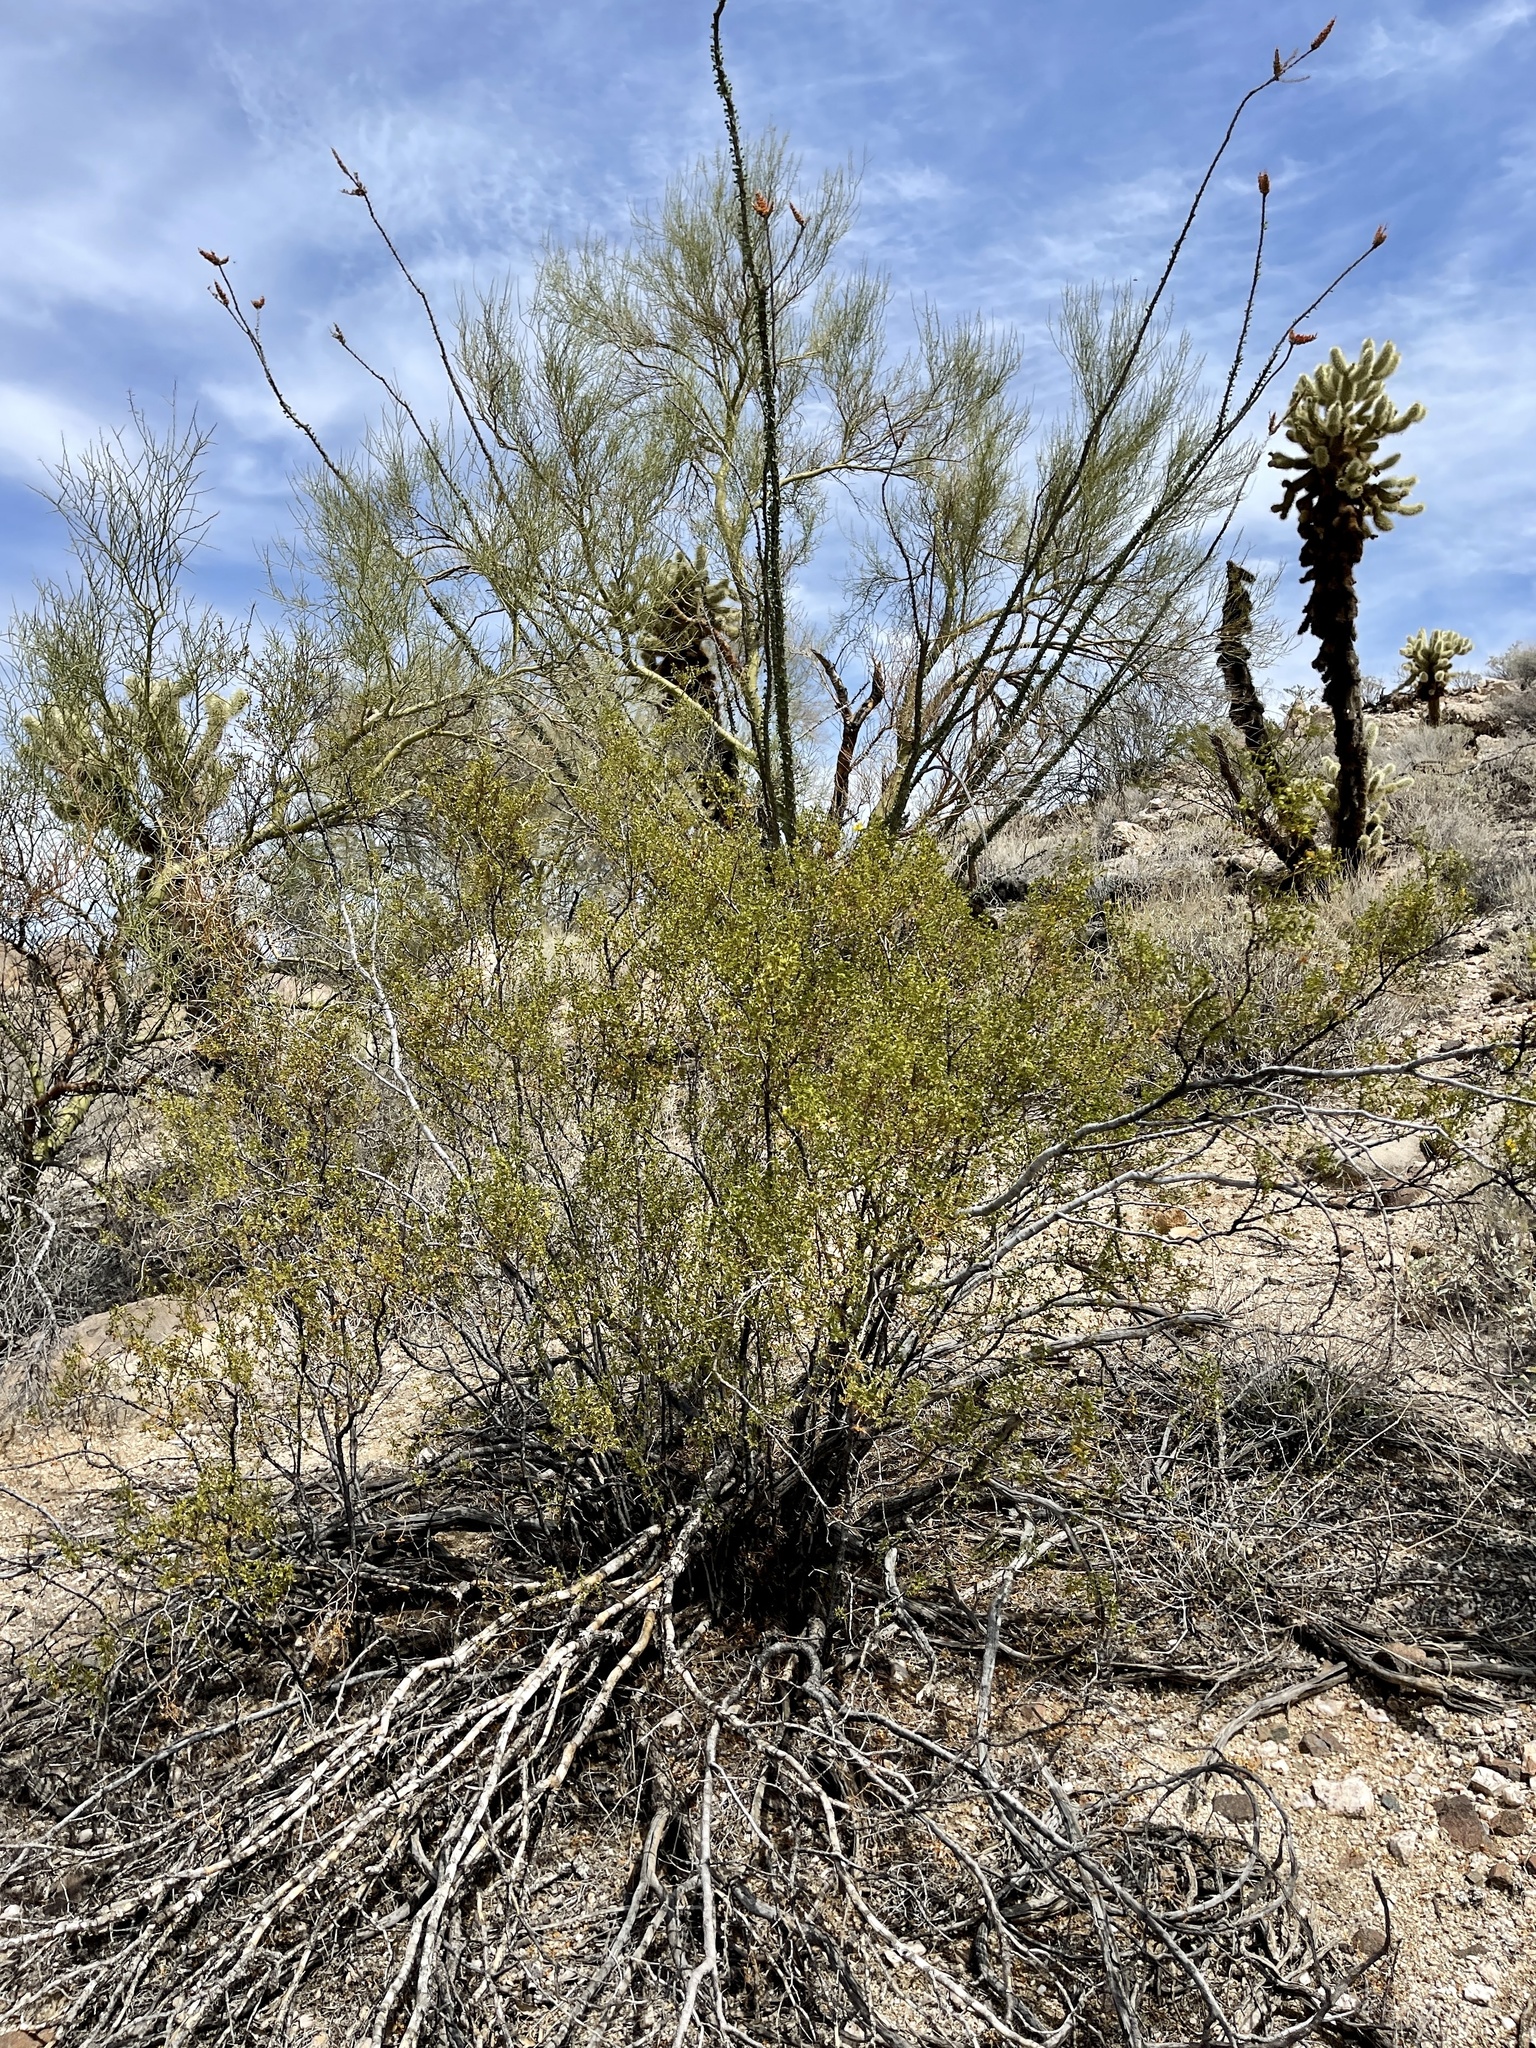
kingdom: Plantae
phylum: Tracheophyta
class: Magnoliopsida
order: Fabales
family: Fabaceae
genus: Parkinsonia
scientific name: Parkinsonia microphylla
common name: Yellow paloverde
